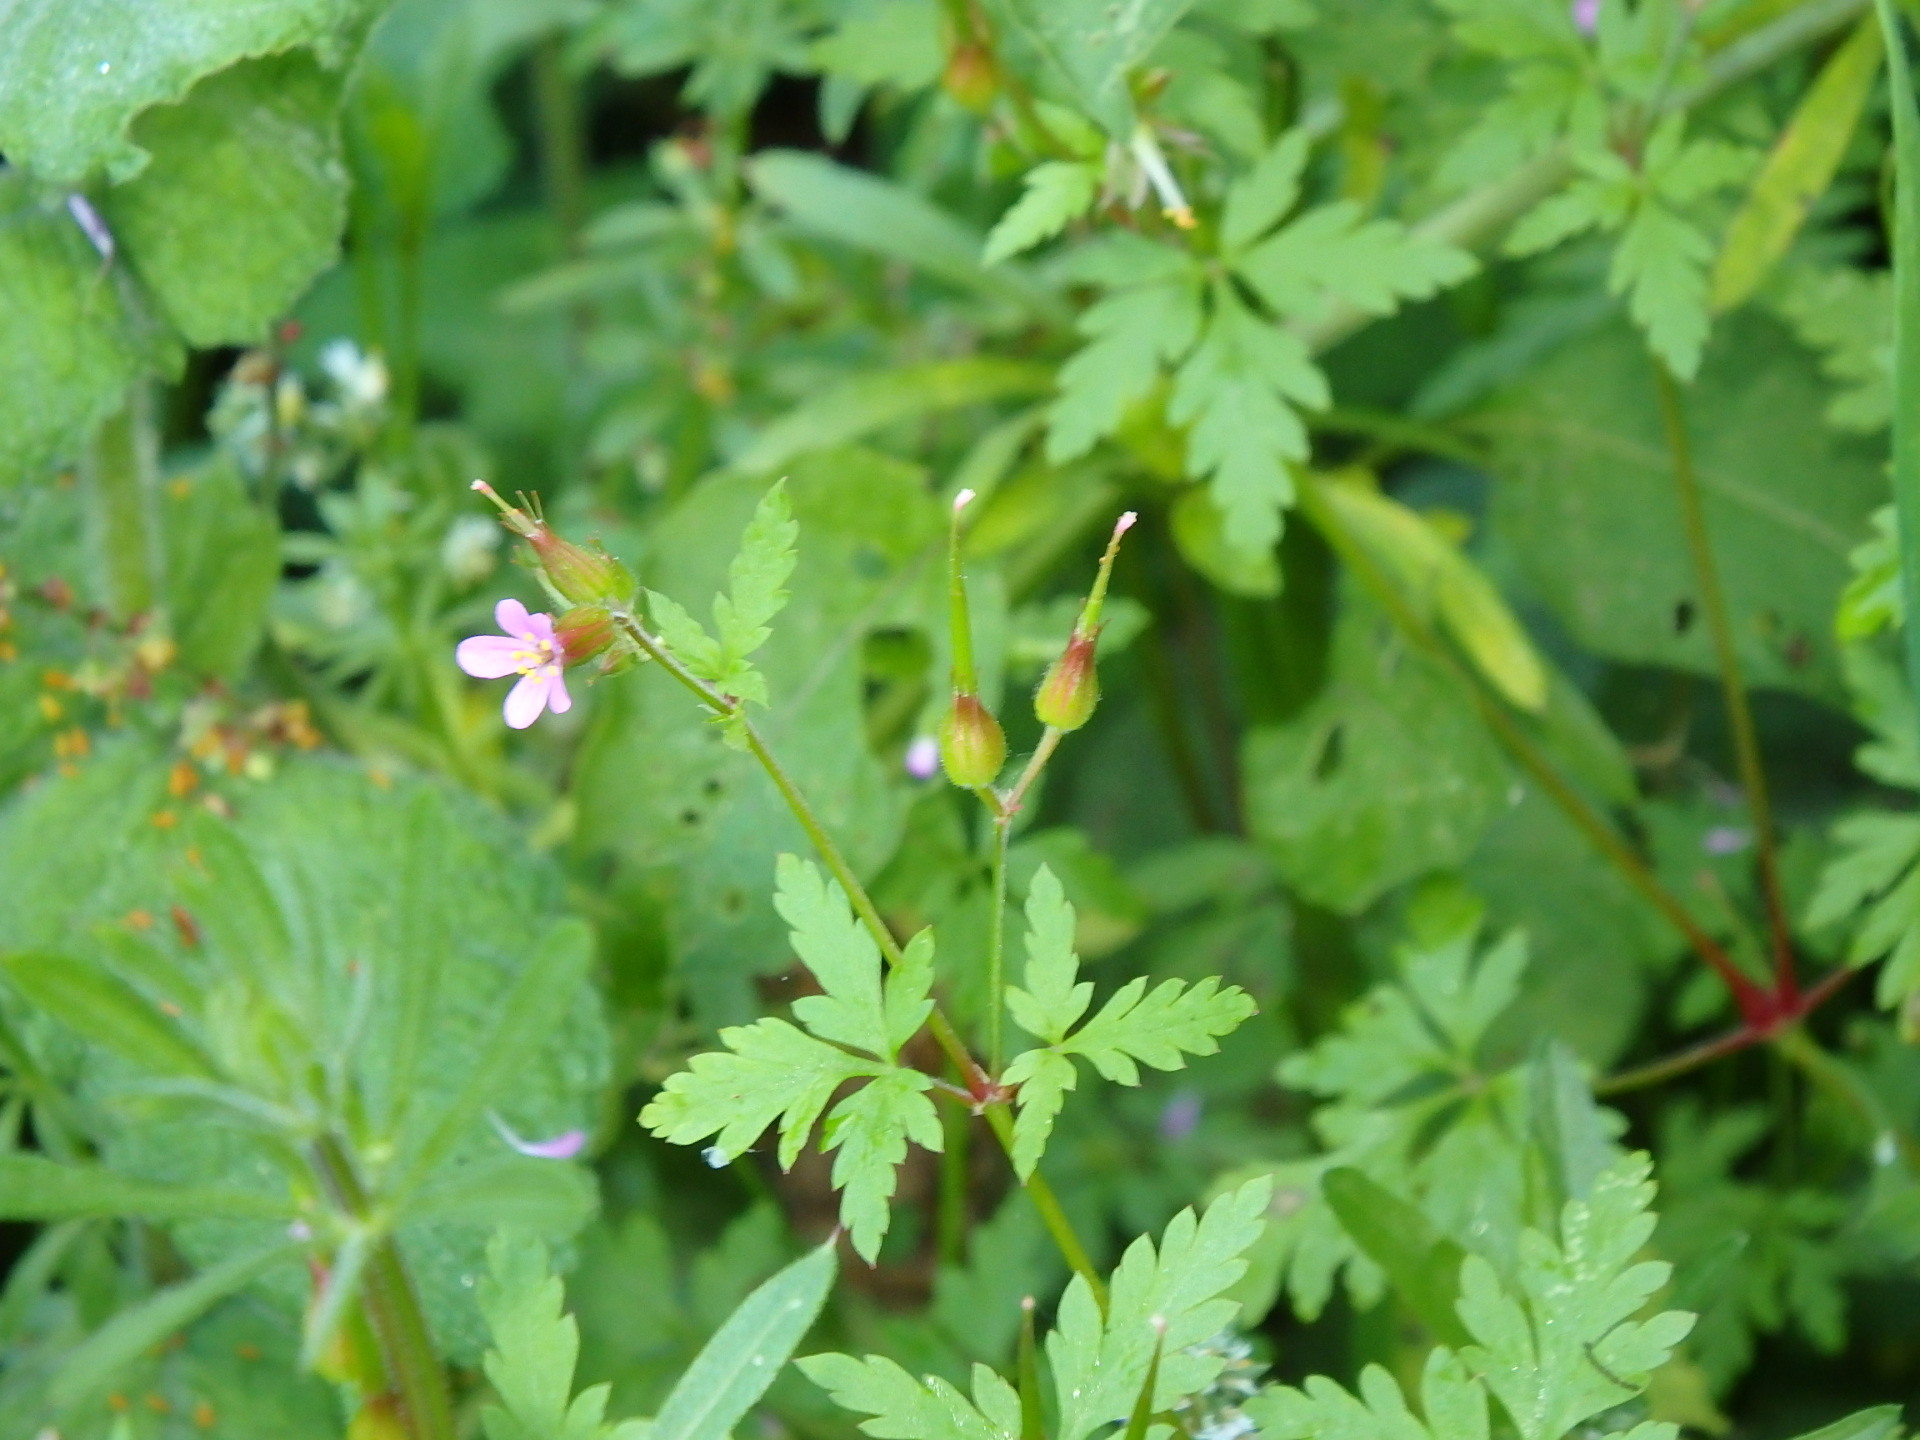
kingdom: Plantae
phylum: Tracheophyta
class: Magnoliopsida
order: Geraniales
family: Geraniaceae
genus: Geranium
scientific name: Geranium purpureum
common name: Little-robin
